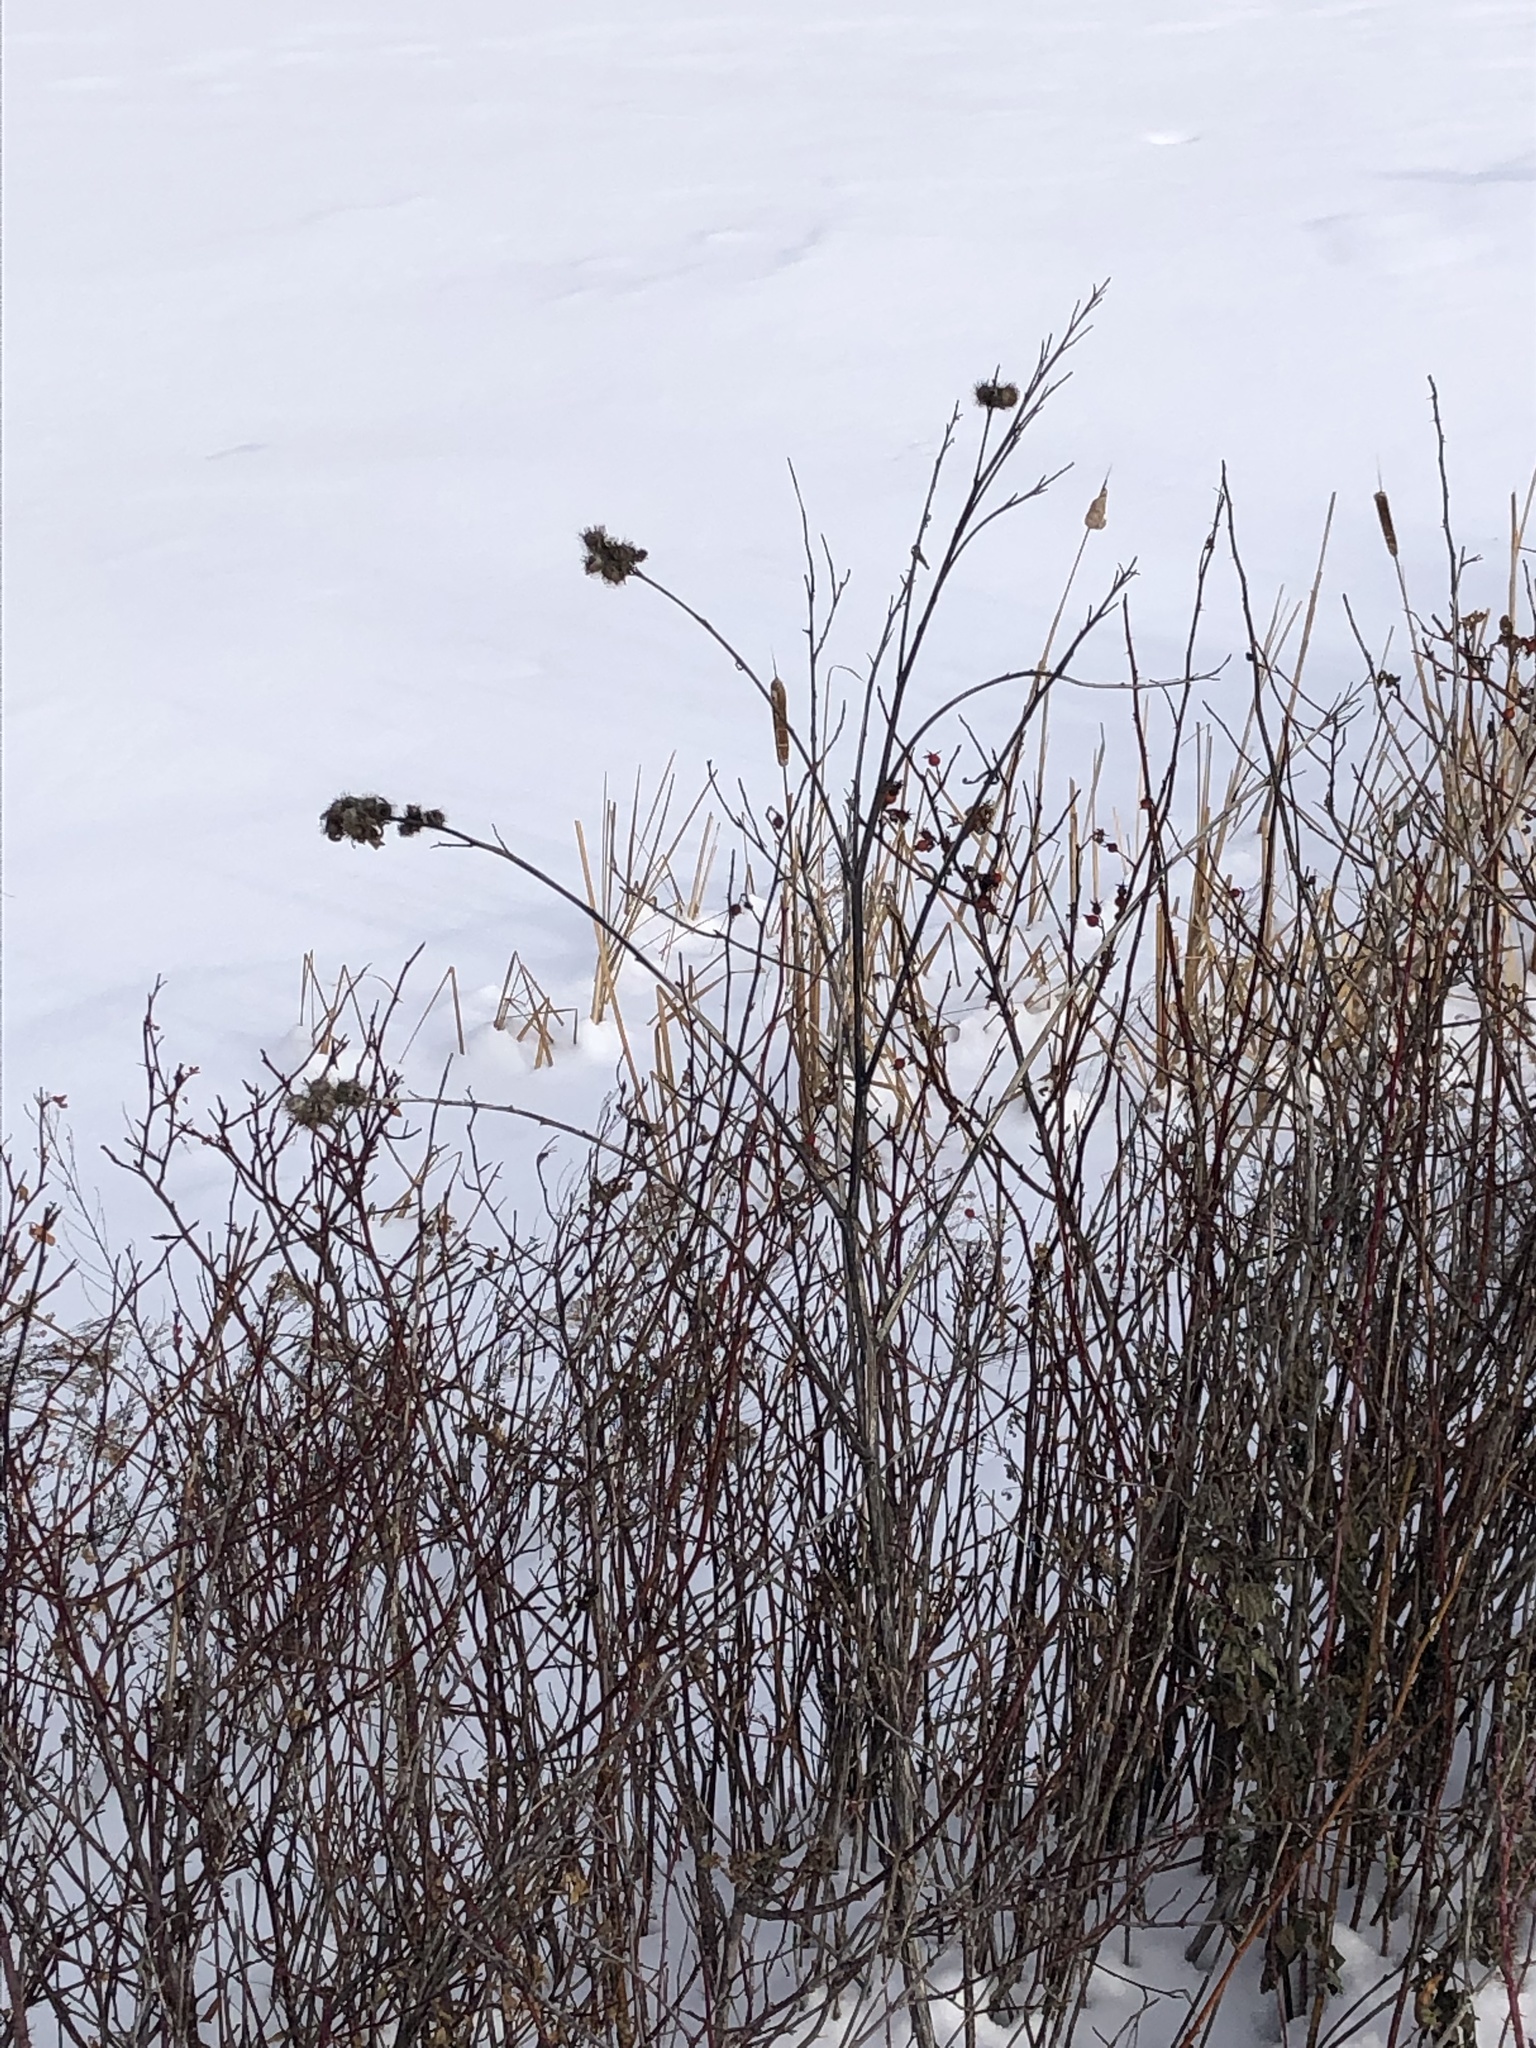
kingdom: Plantae
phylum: Tracheophyta
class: Magnoliopsida
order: Asterales
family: Asteraceae
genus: Arctium
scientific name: Arctium minus
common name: Lesser burdock
